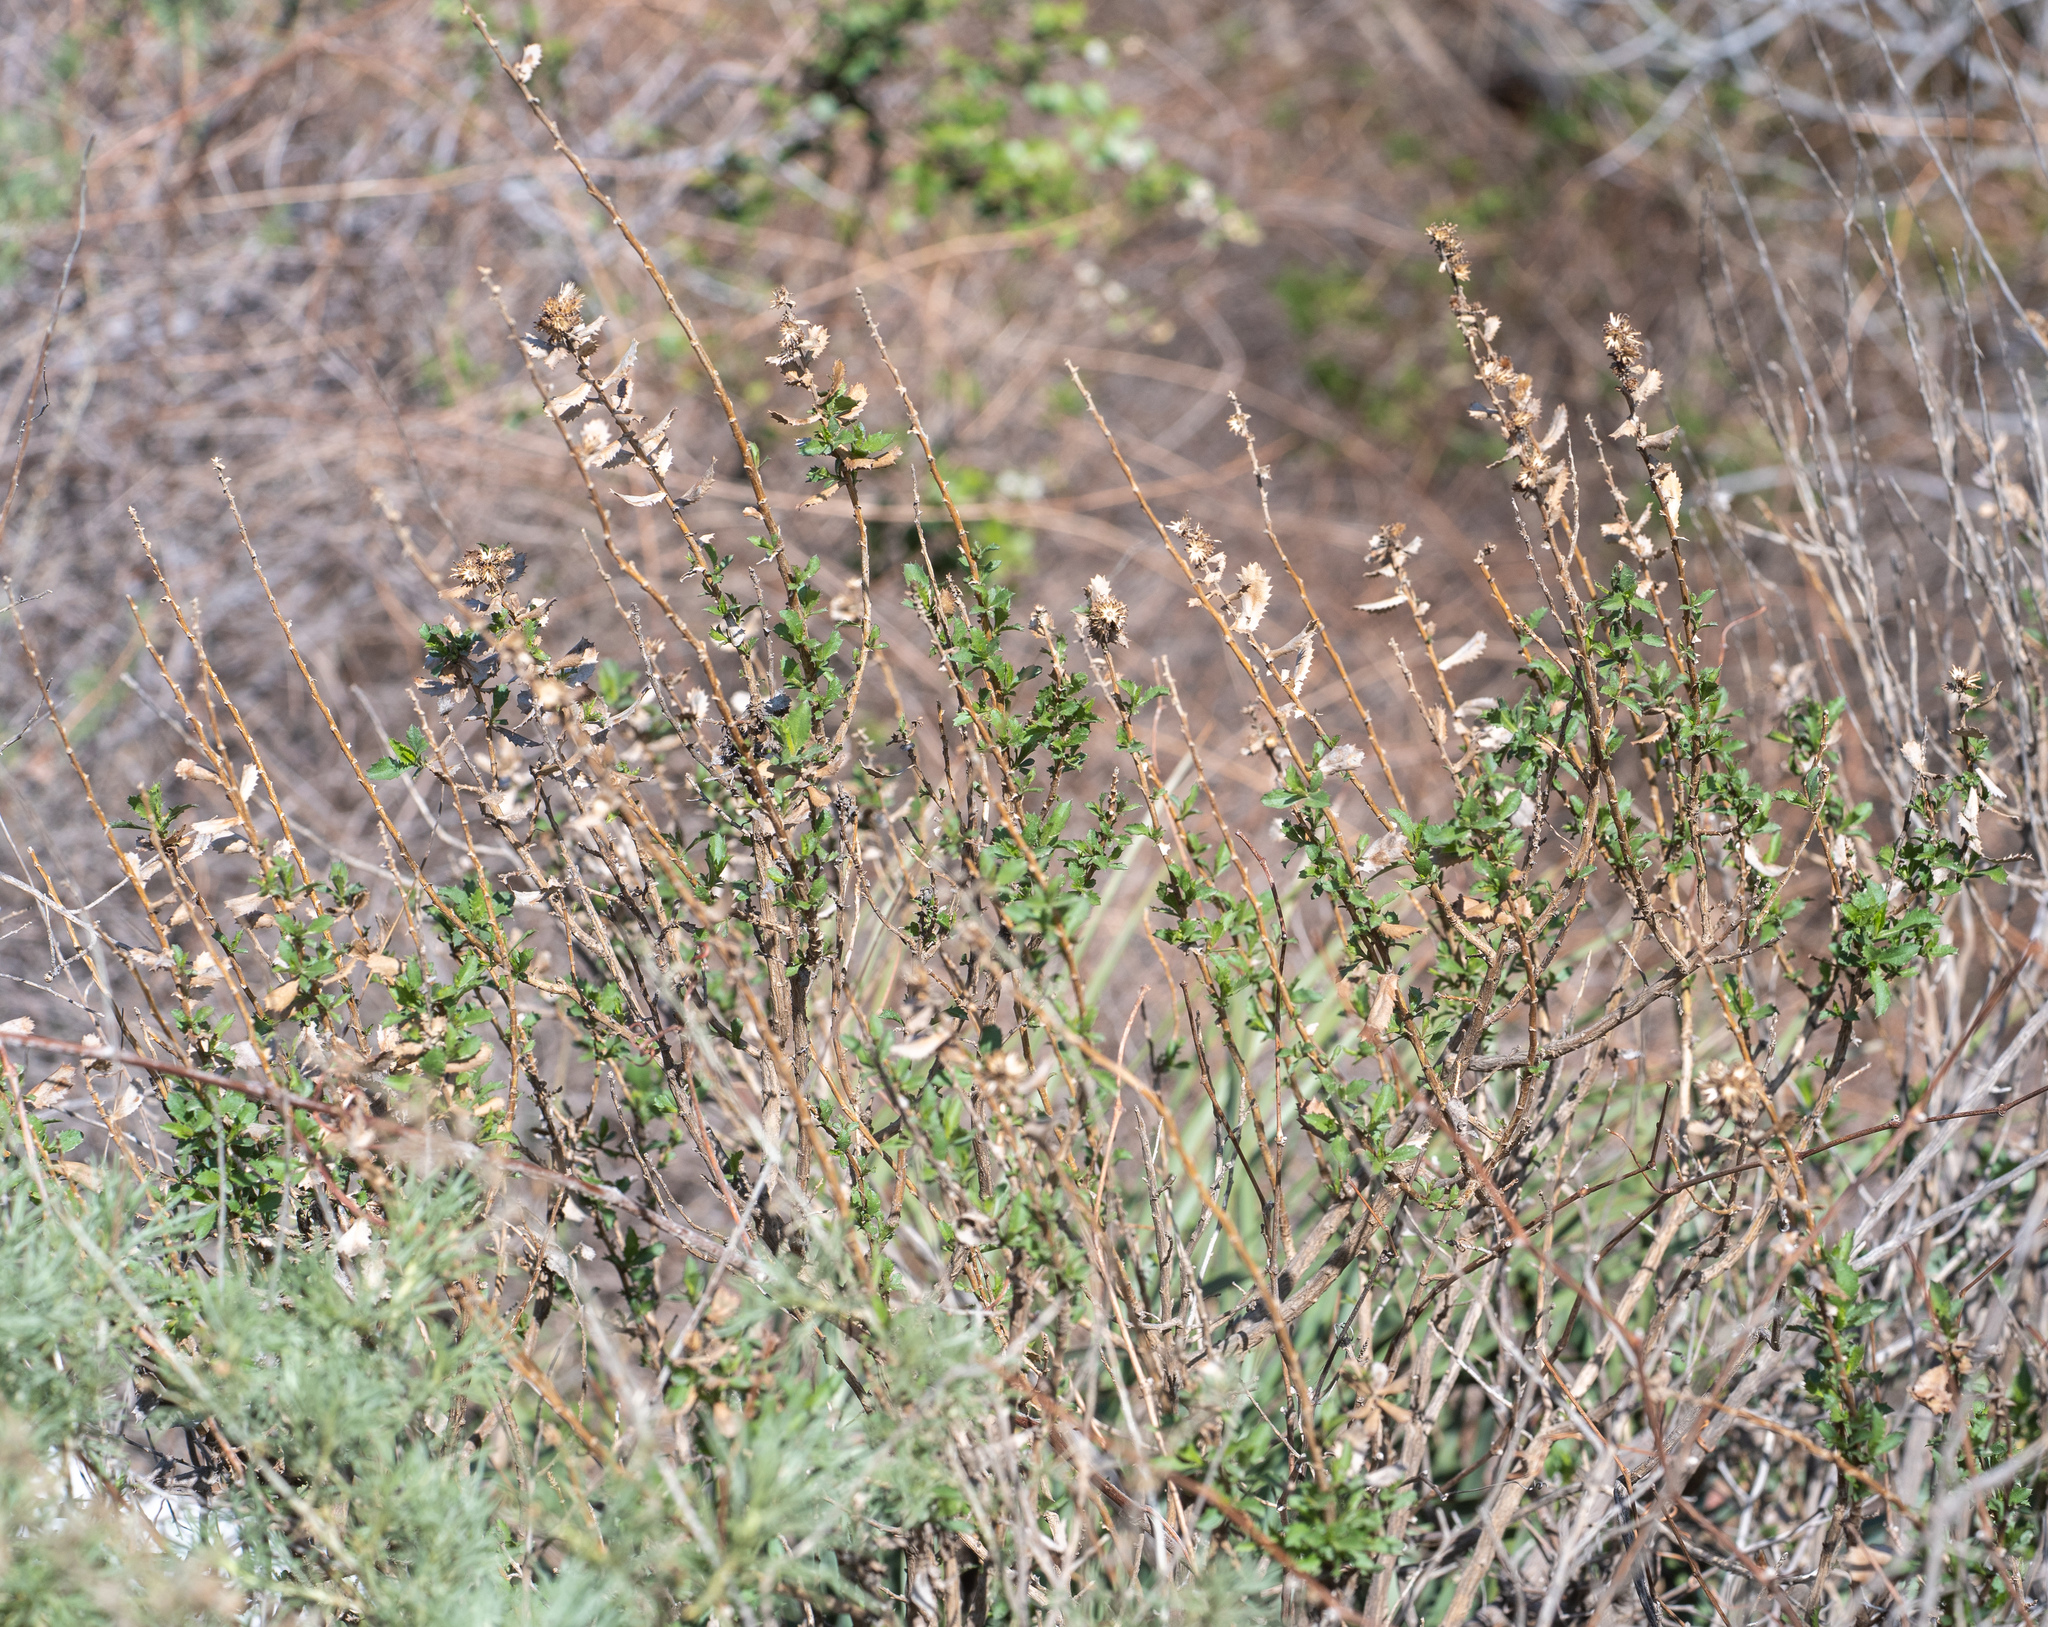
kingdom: Plantae
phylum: Tracheophyta
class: Magnoliopsida
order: Asterales
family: Asteraceae
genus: Hazardia
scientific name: Hazardia squarrosa
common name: Saw-tooth goldenbush
